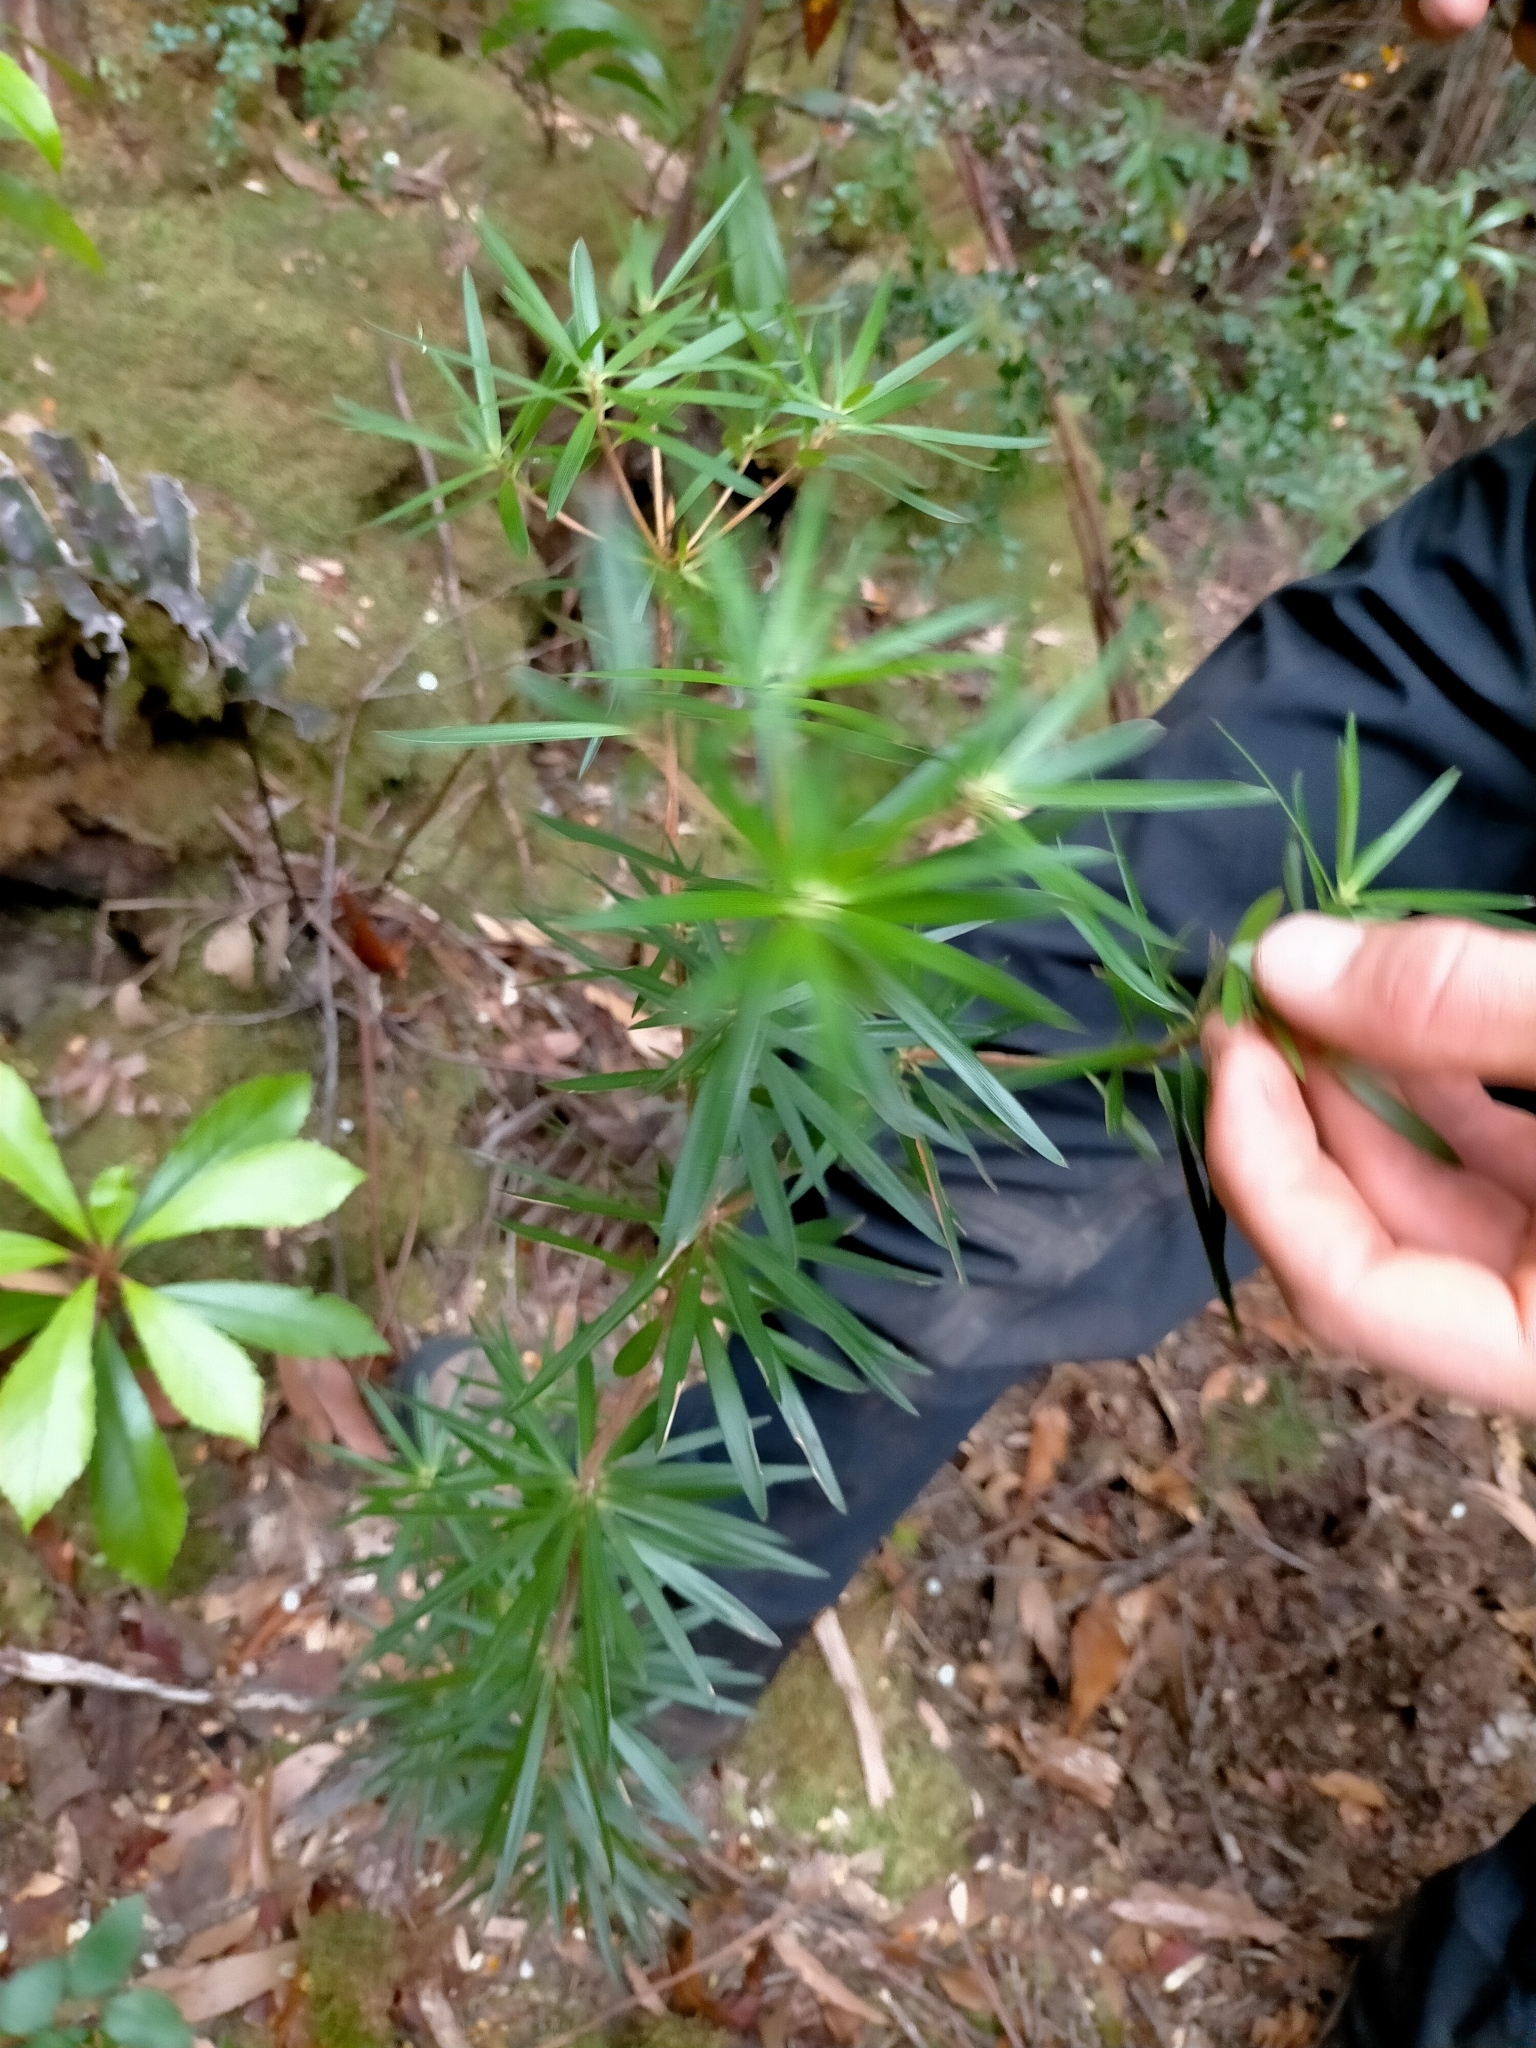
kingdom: Plantae
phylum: Tracheophyta
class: Magnoliopsida
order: Ericales
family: Ericaceae
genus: Cyathodes
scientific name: Cyathodes glauca
